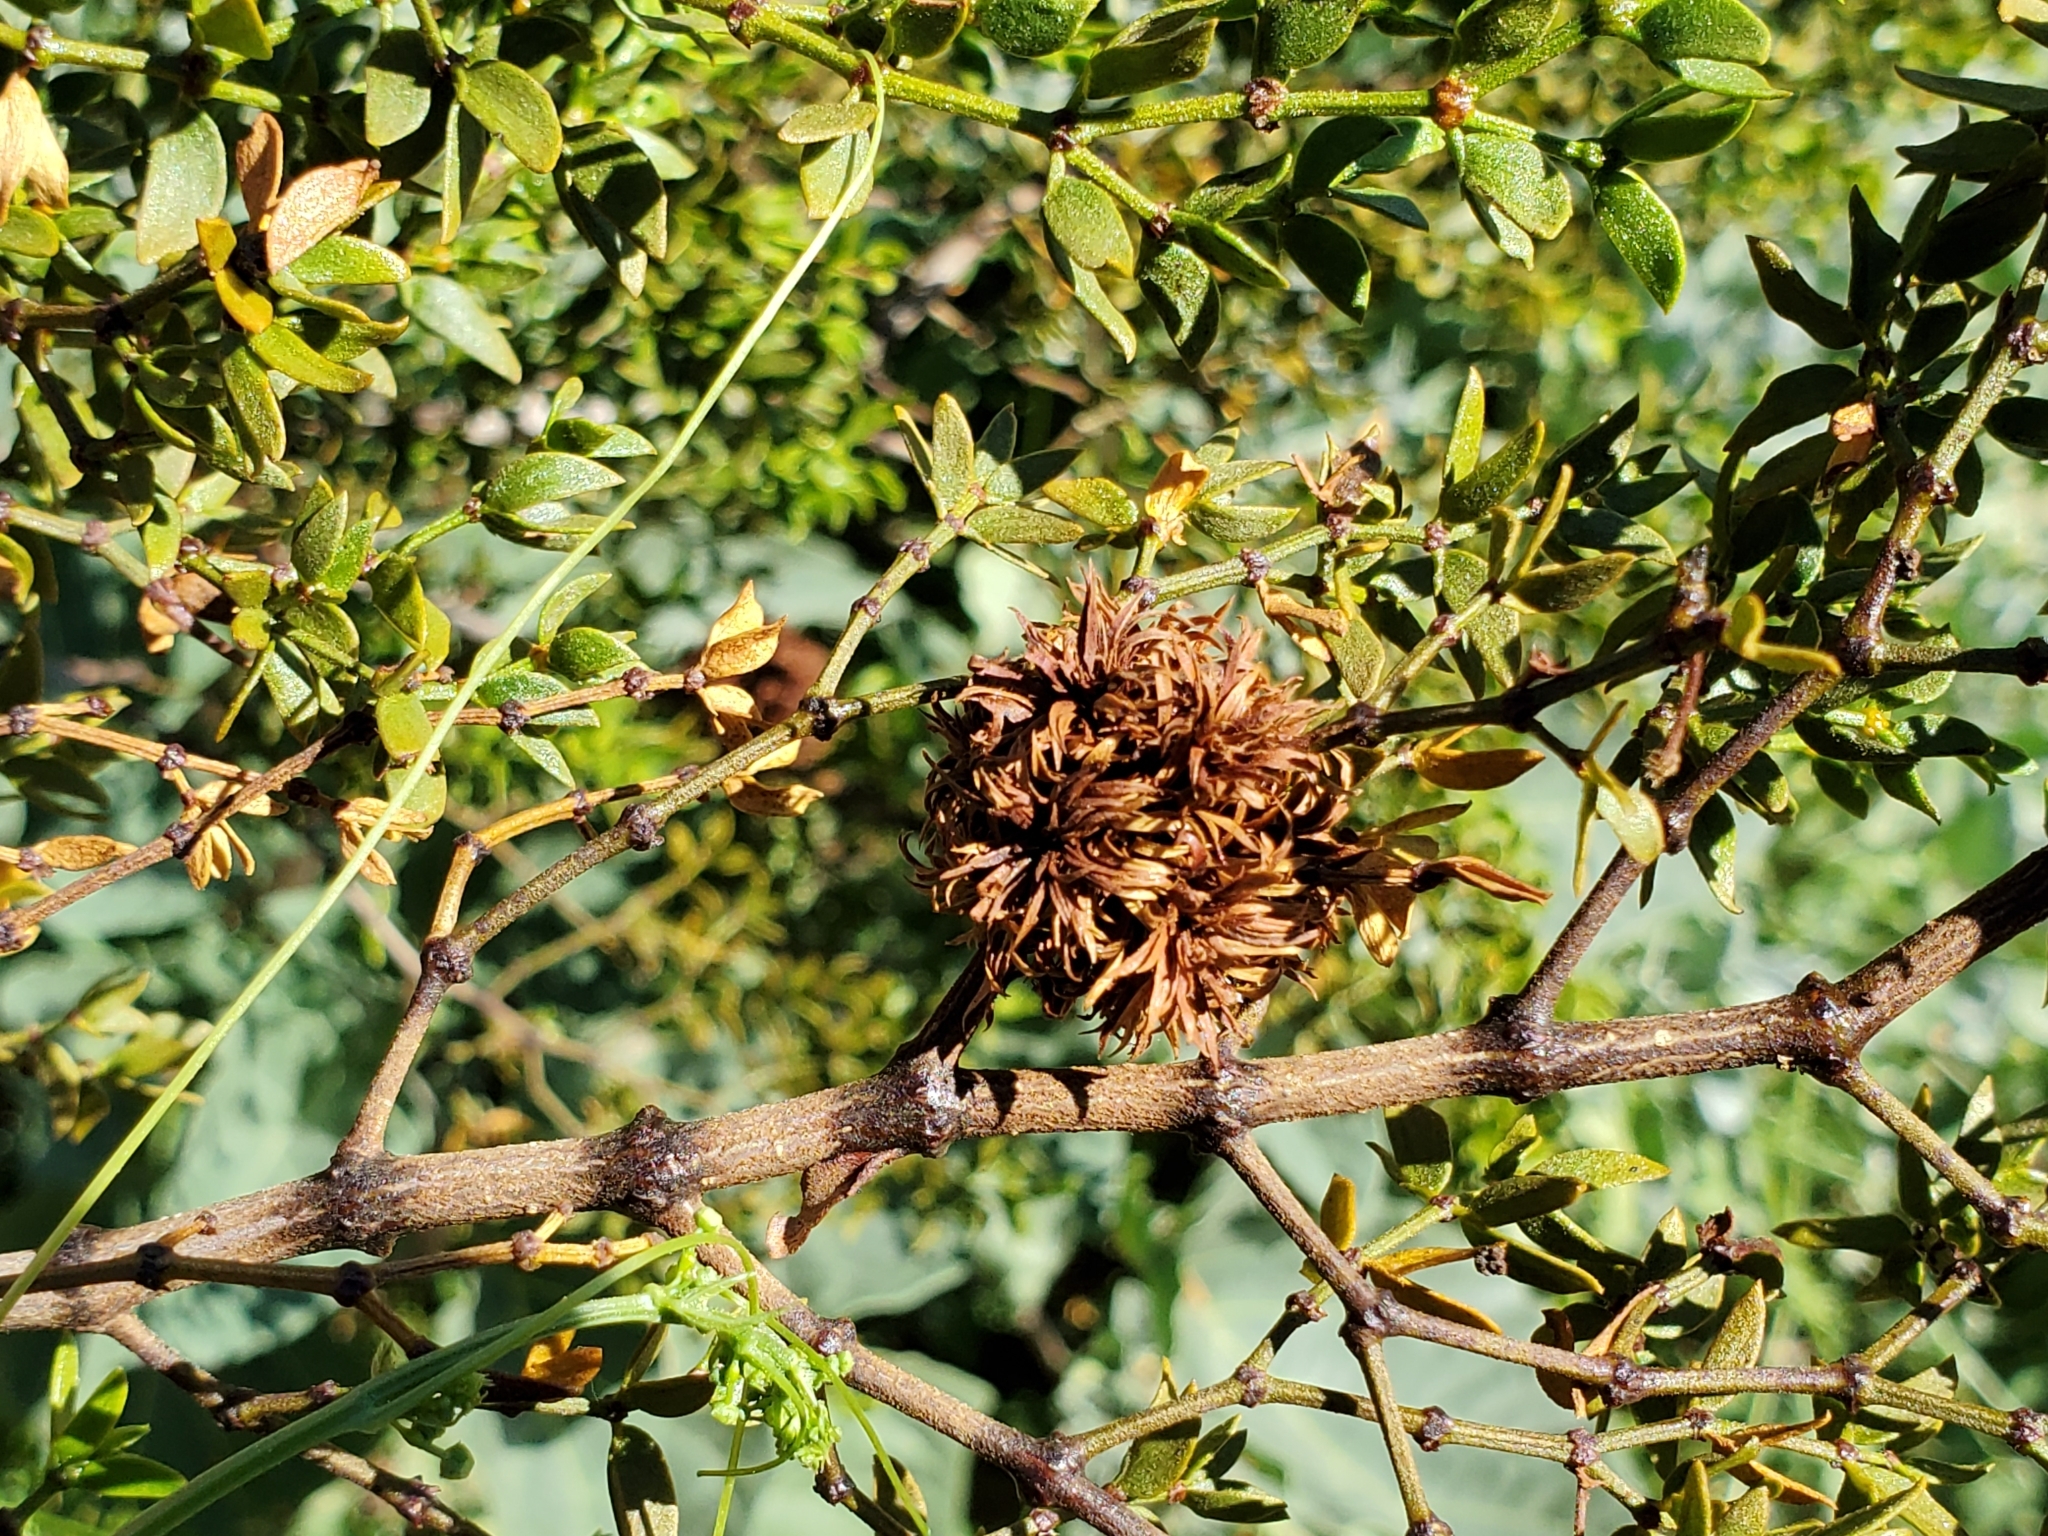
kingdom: Animalia
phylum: Arthropoda
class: Insecta
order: Diptera
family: Cecidomyiidae
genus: Asphondylia
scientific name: Asphondylia auripila
